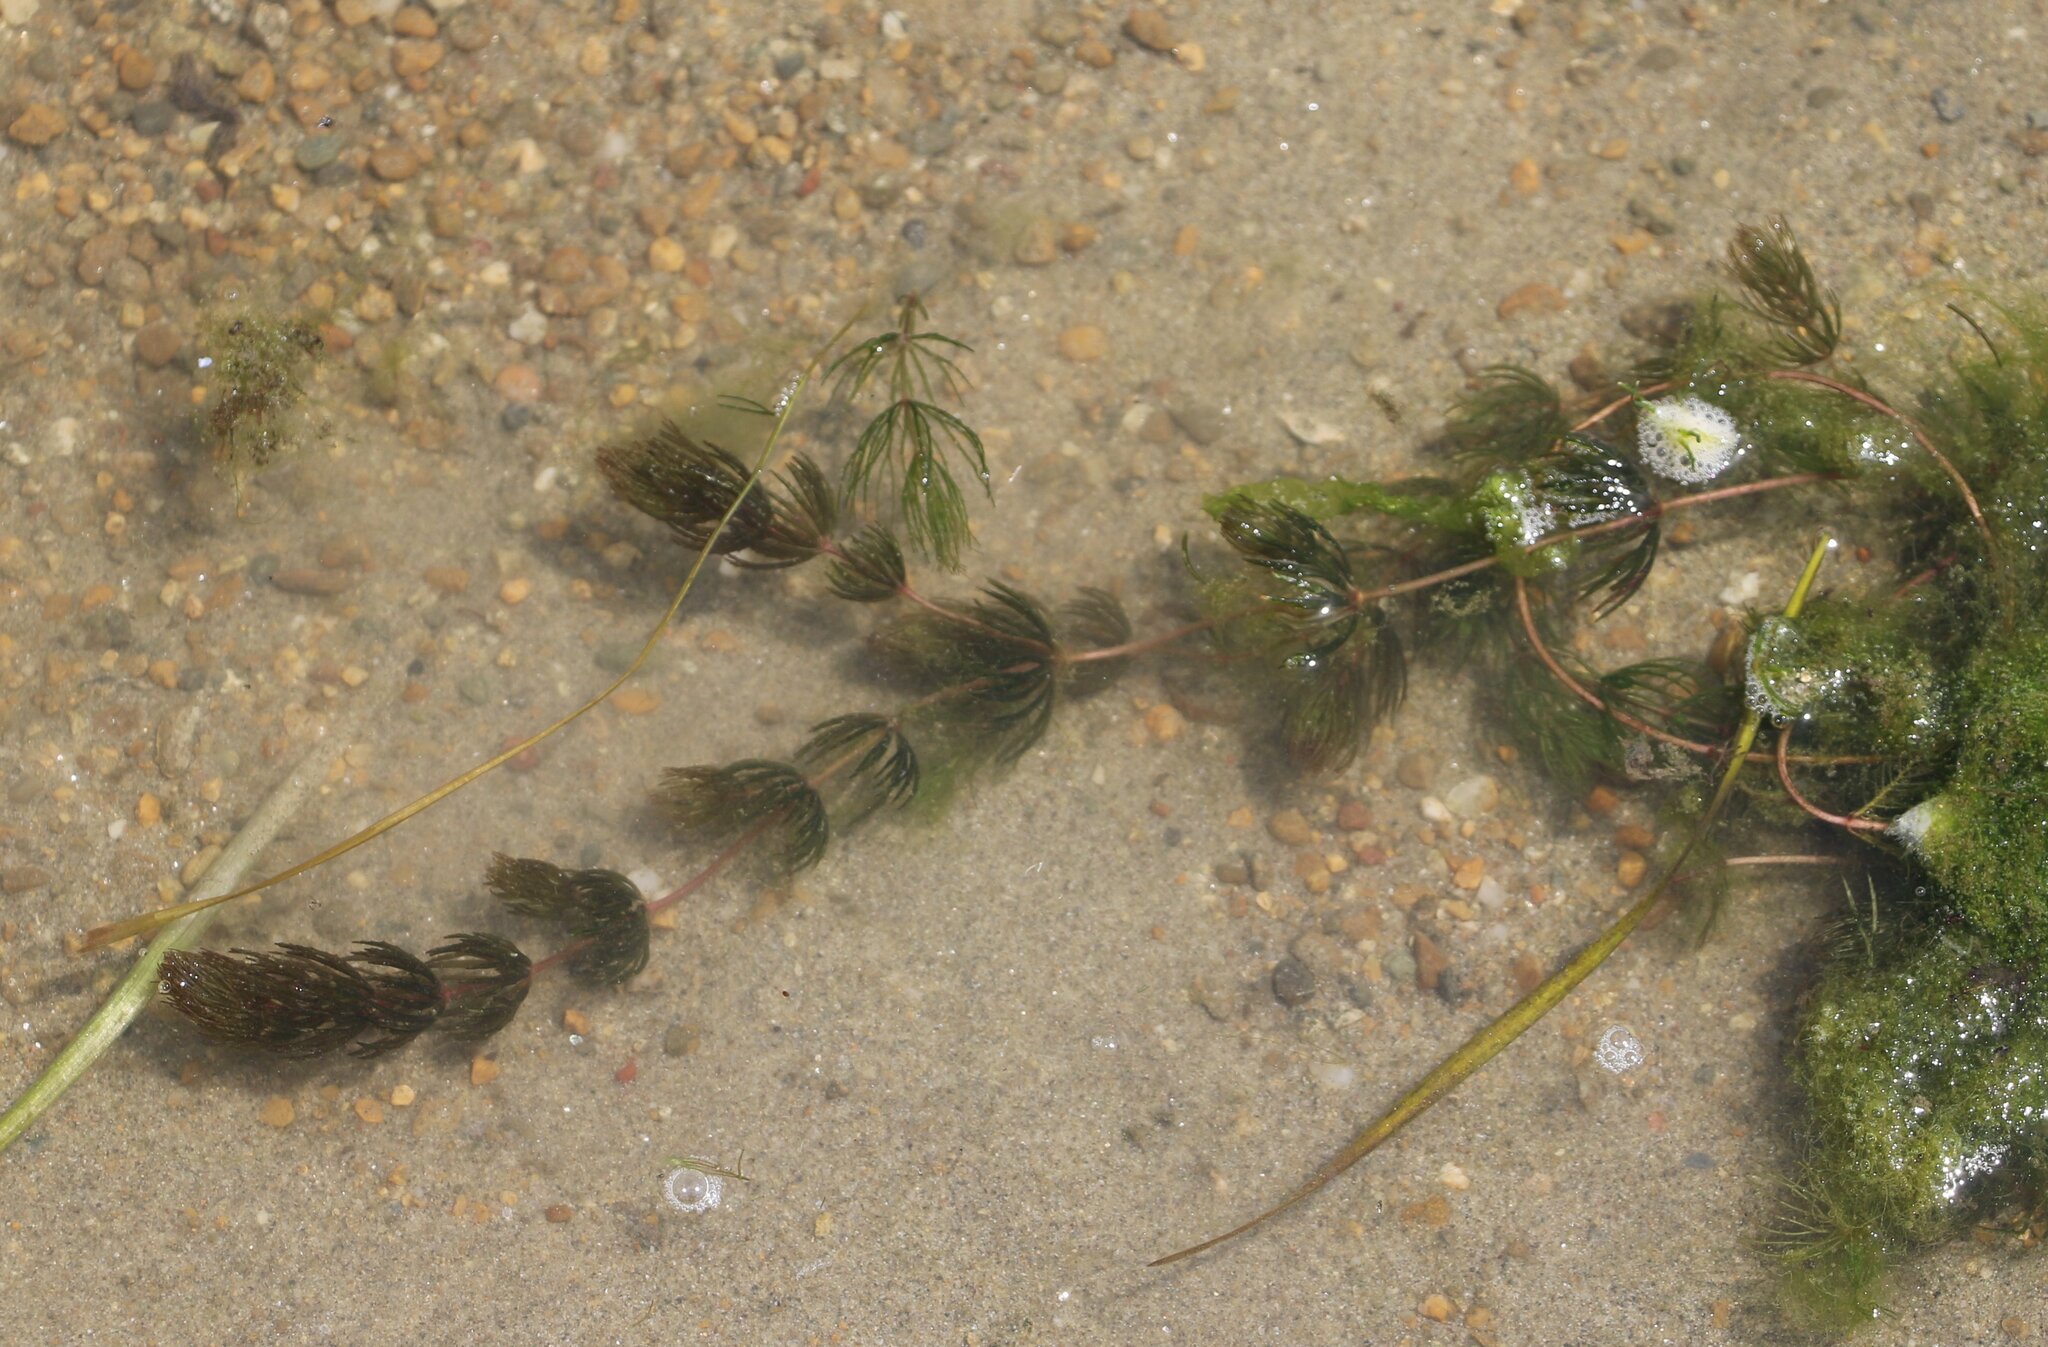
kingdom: Plantae
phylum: Tracheophyta
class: Magnoliopsida
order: Ceratophyllales
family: Ceratophyllaceae
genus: Ceratophyllum
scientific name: Ceratophyllum demersum
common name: Rigid hornwort
